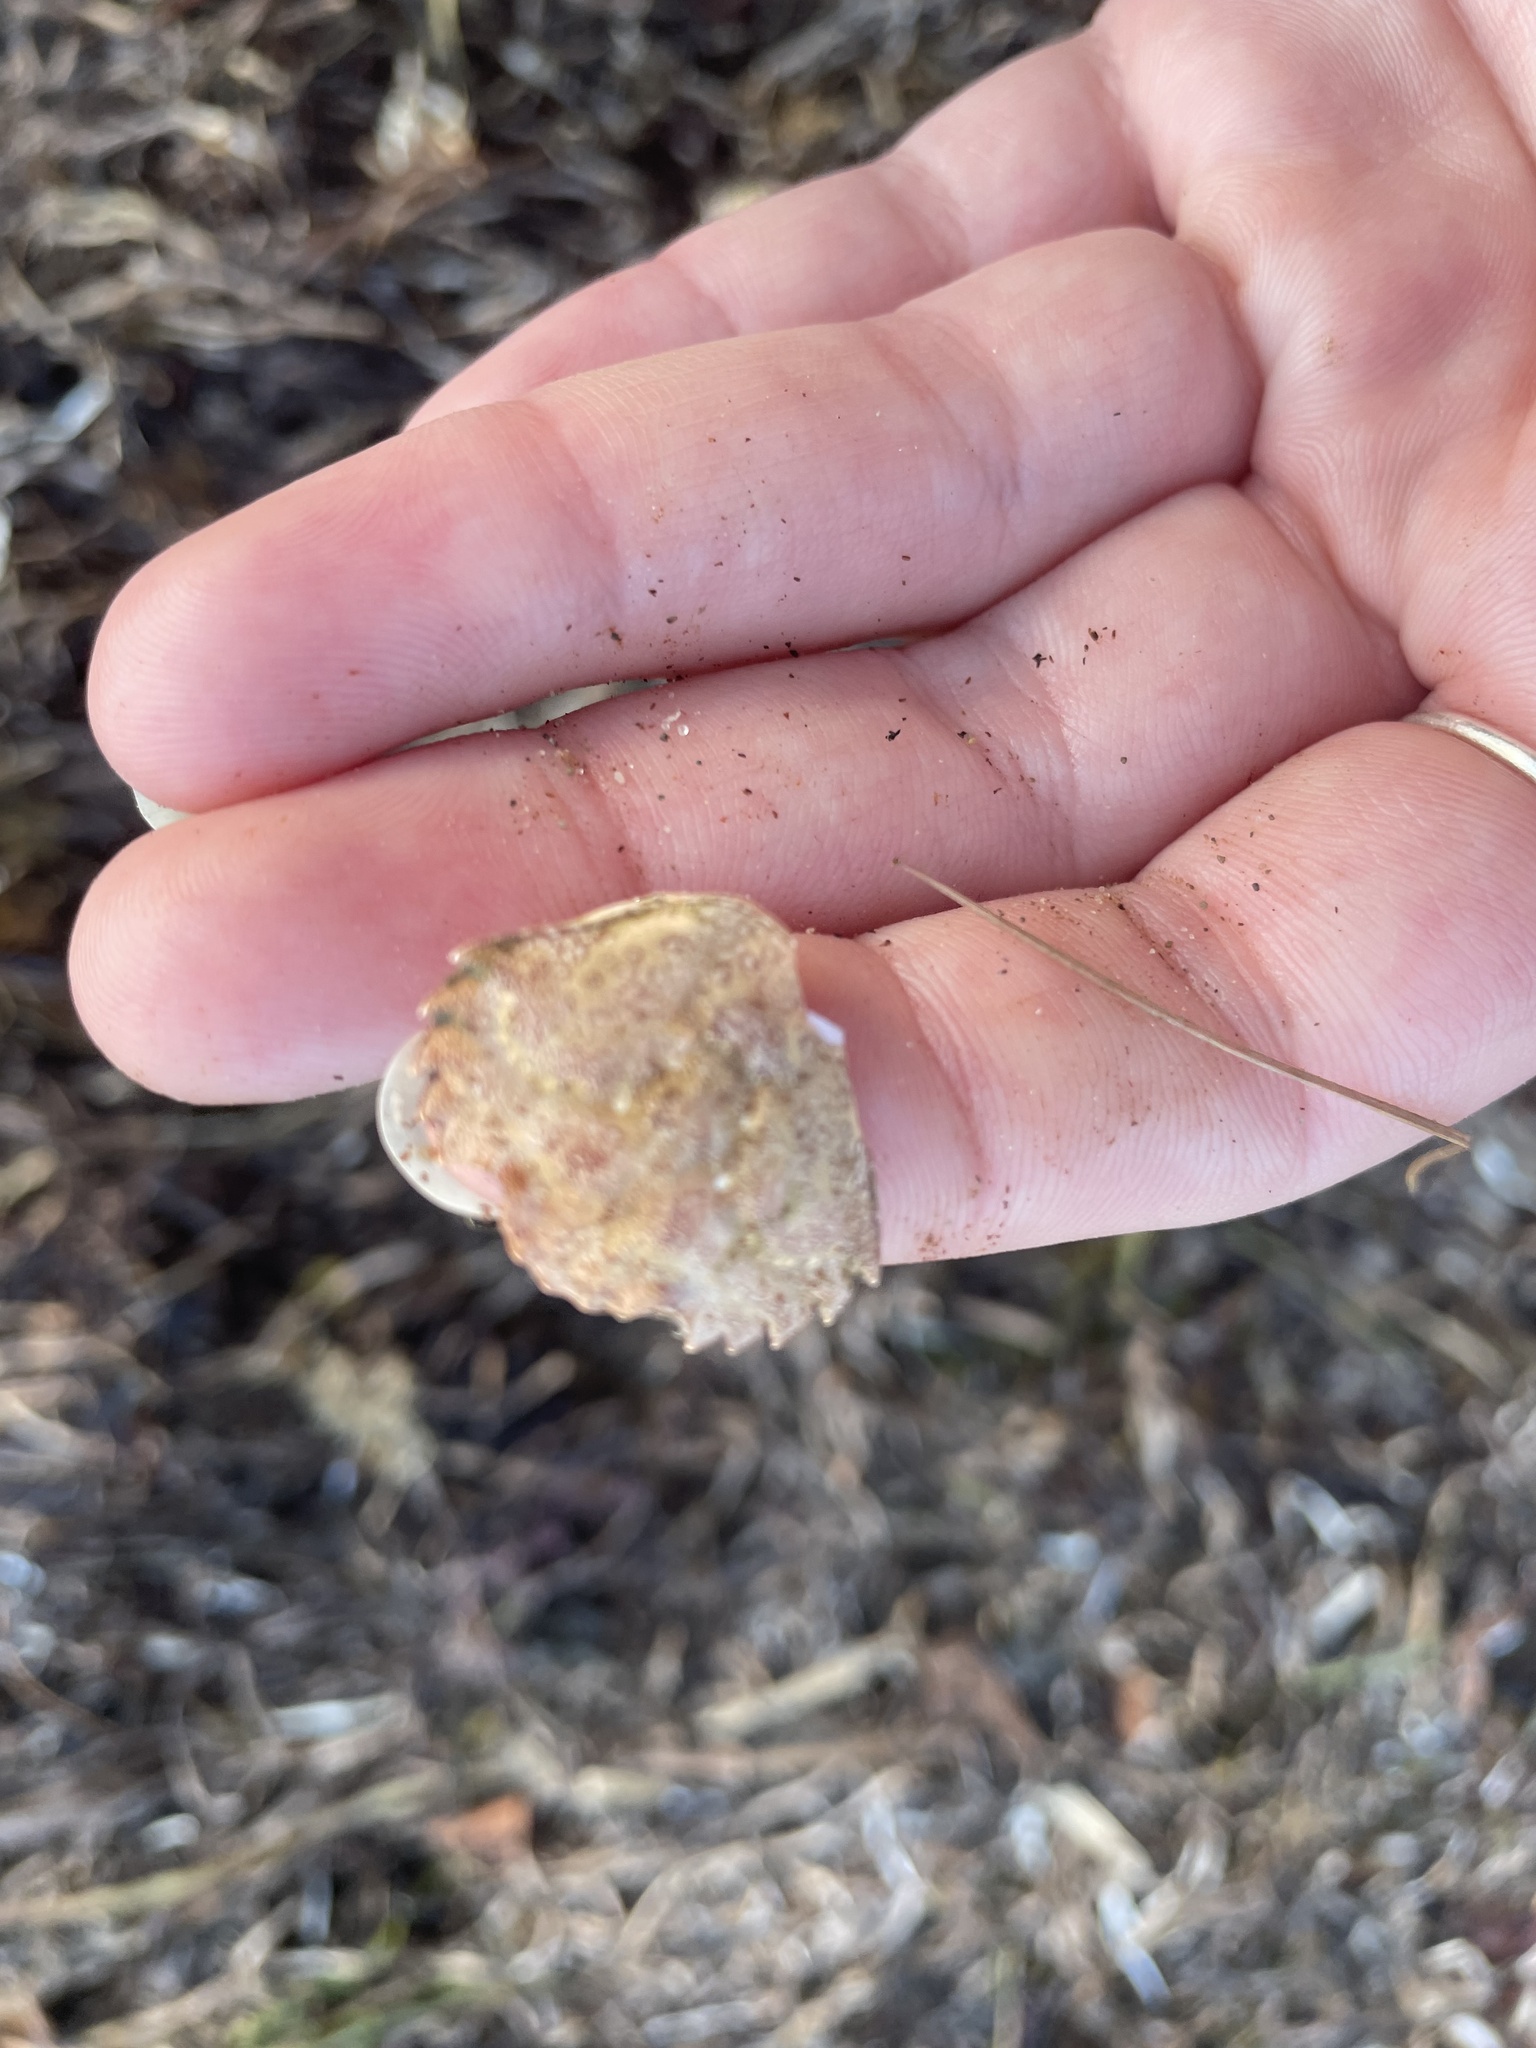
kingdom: Animalia
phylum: Arthropoda
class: Malacostraca
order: Decapoda
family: Carcinidae
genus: Carcinus
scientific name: Carcinus maenas
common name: European green crab
